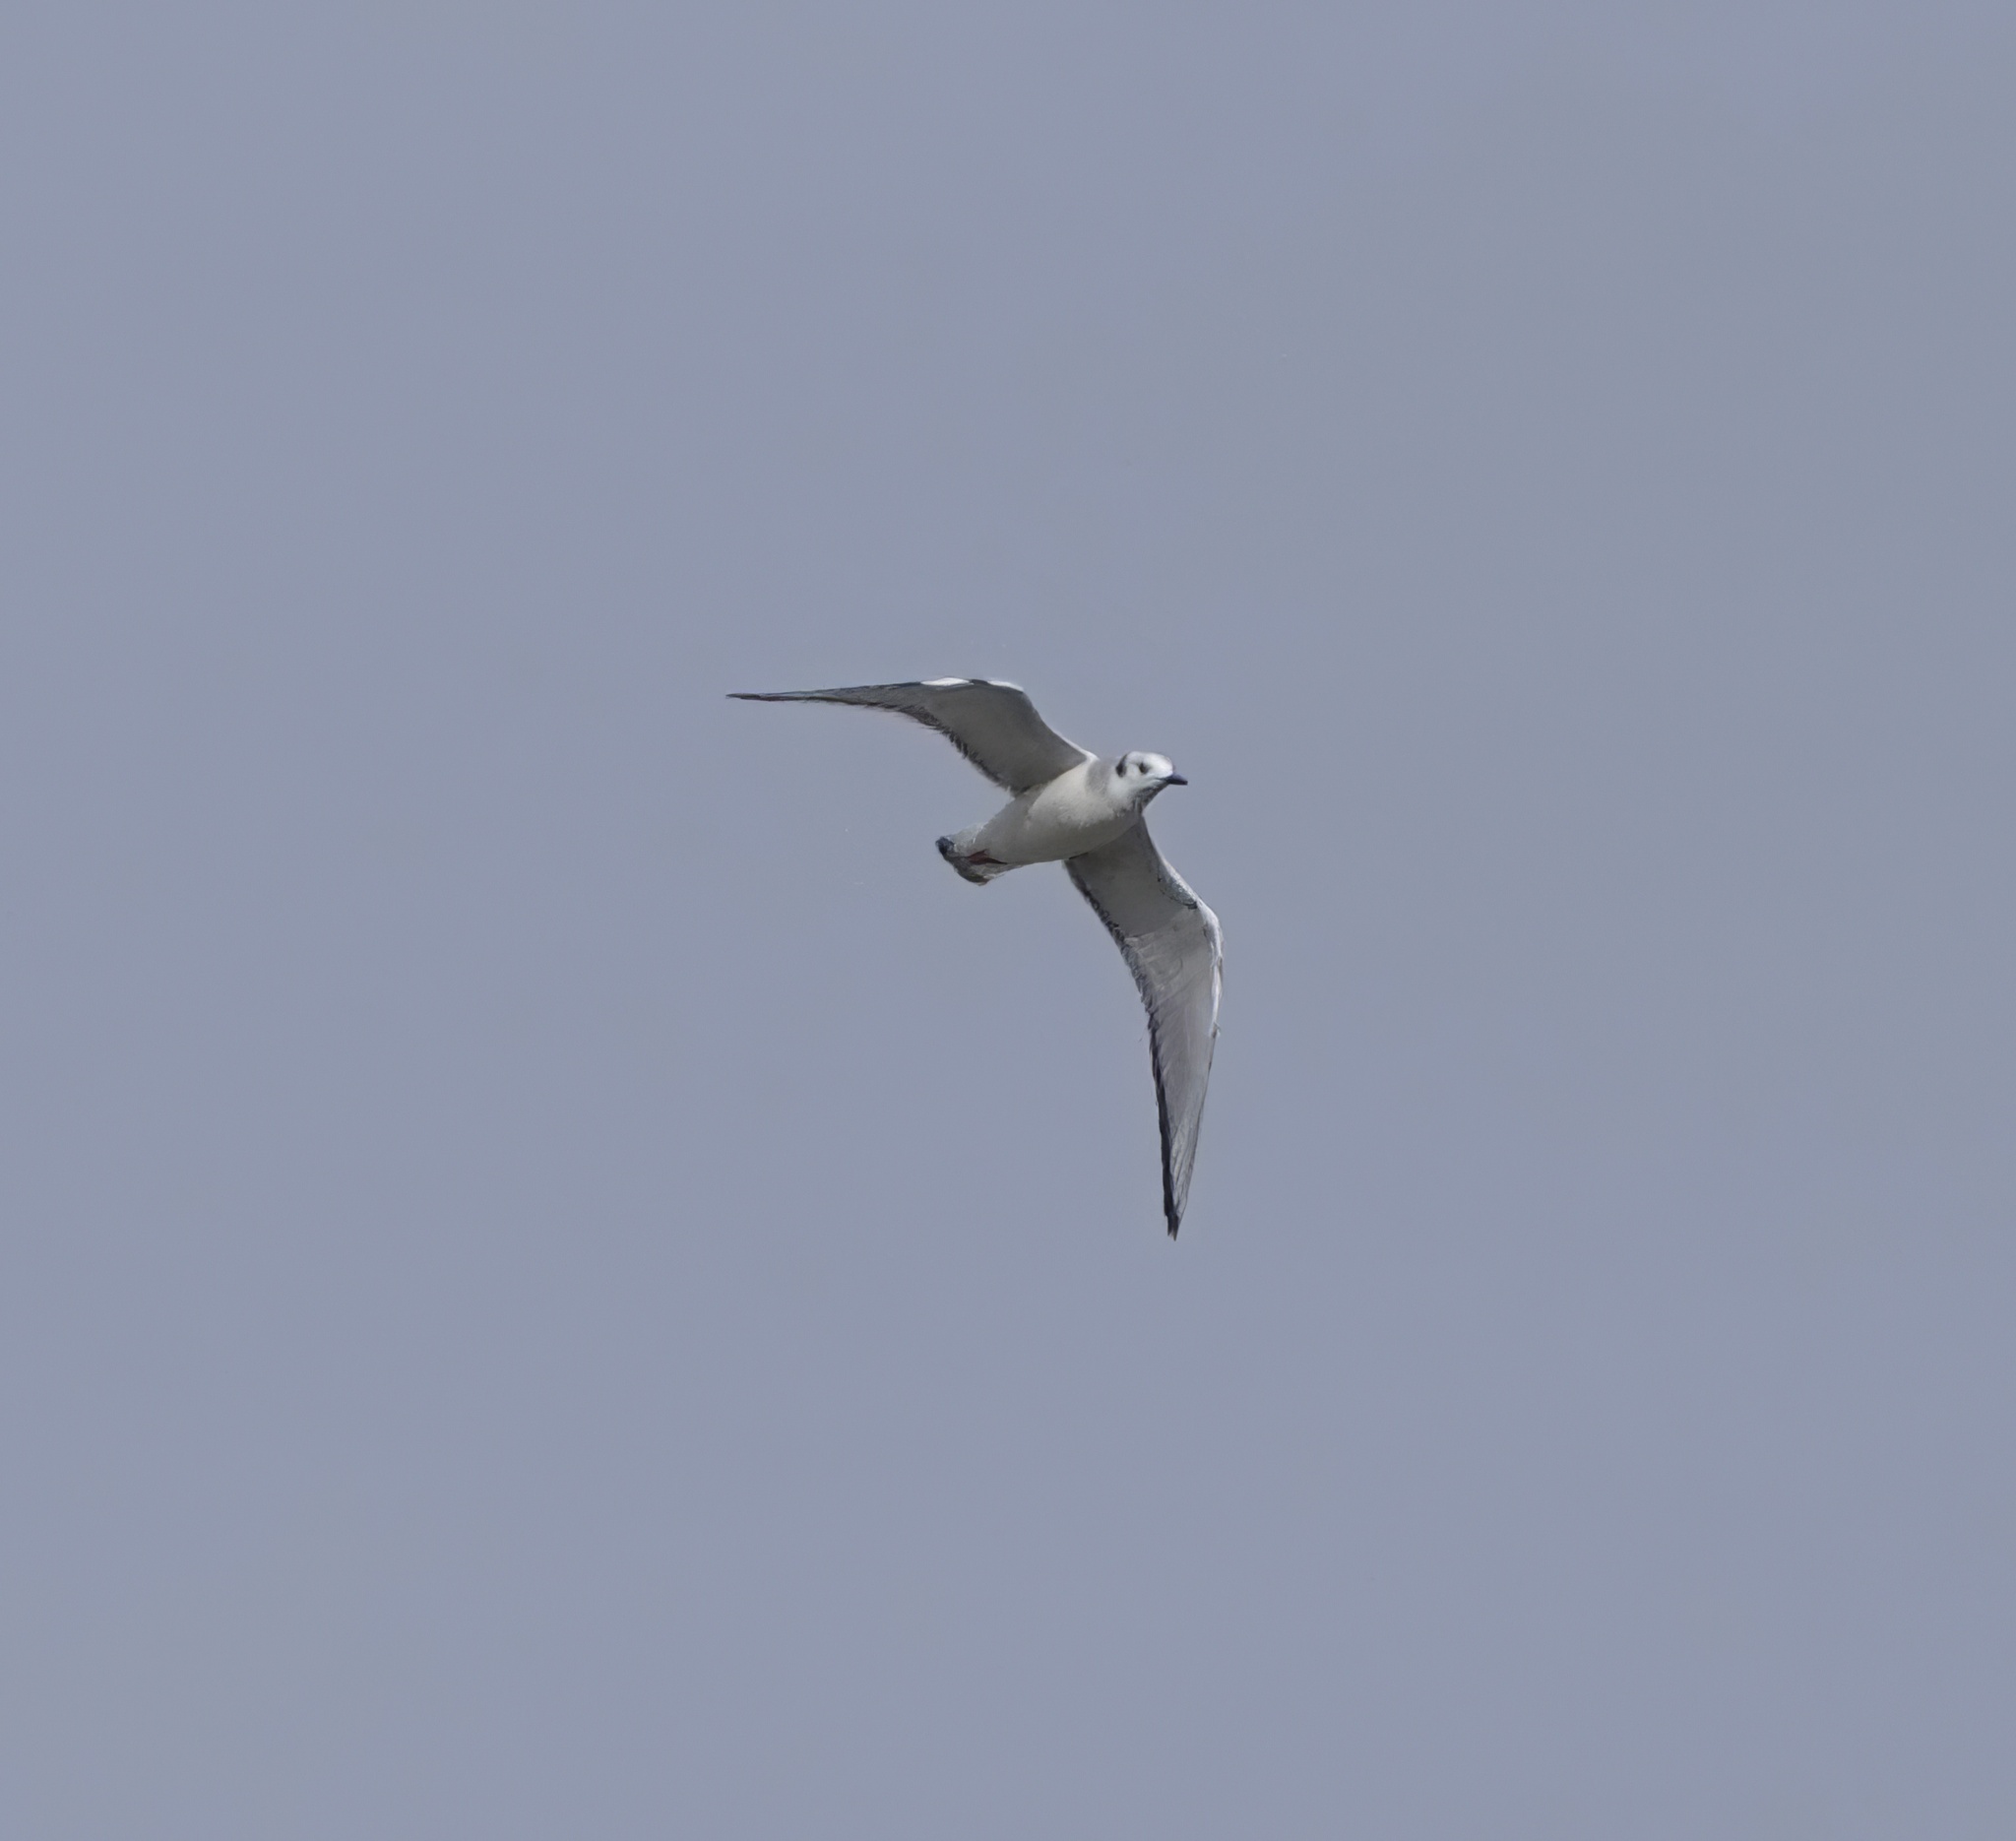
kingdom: Animalia
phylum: Chordata
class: Aves
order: Charadriiformes
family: Laridae
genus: Chroicocephalus
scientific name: Chroicocephalus philadelphia
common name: Bonaparte's gull
